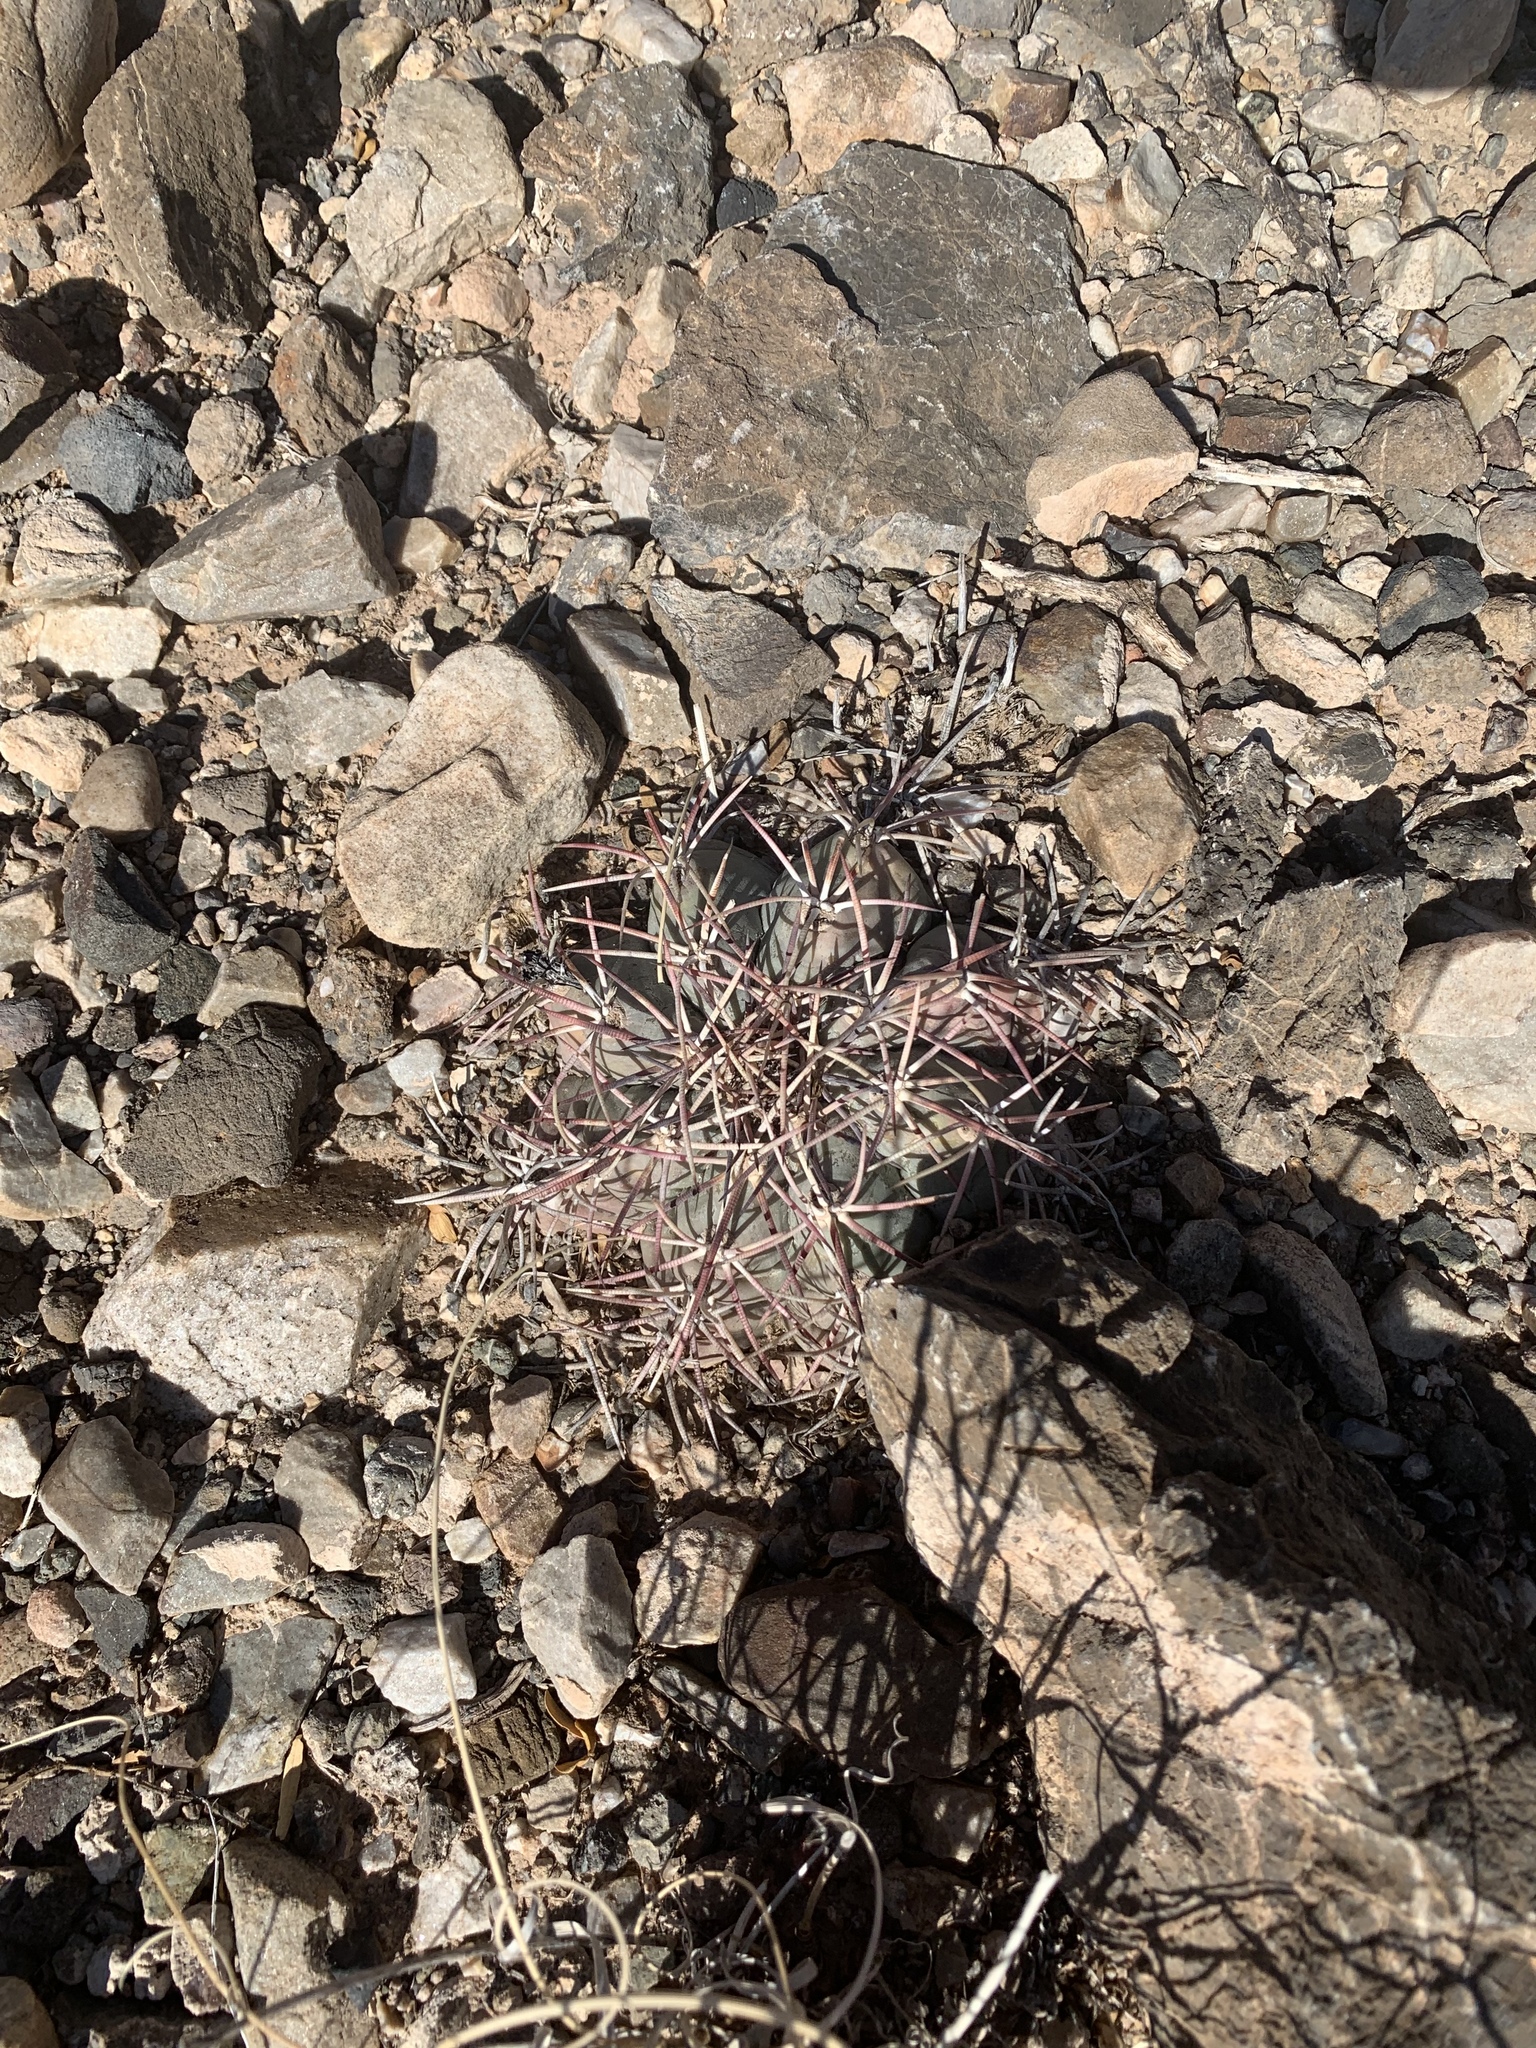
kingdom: Plantae
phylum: Tracheophyta
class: Magnoliopsida
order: Caryophyllales
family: Cactaceae
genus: Echinocactus
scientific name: Echinocactus horizonthalonius
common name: Devilshead
